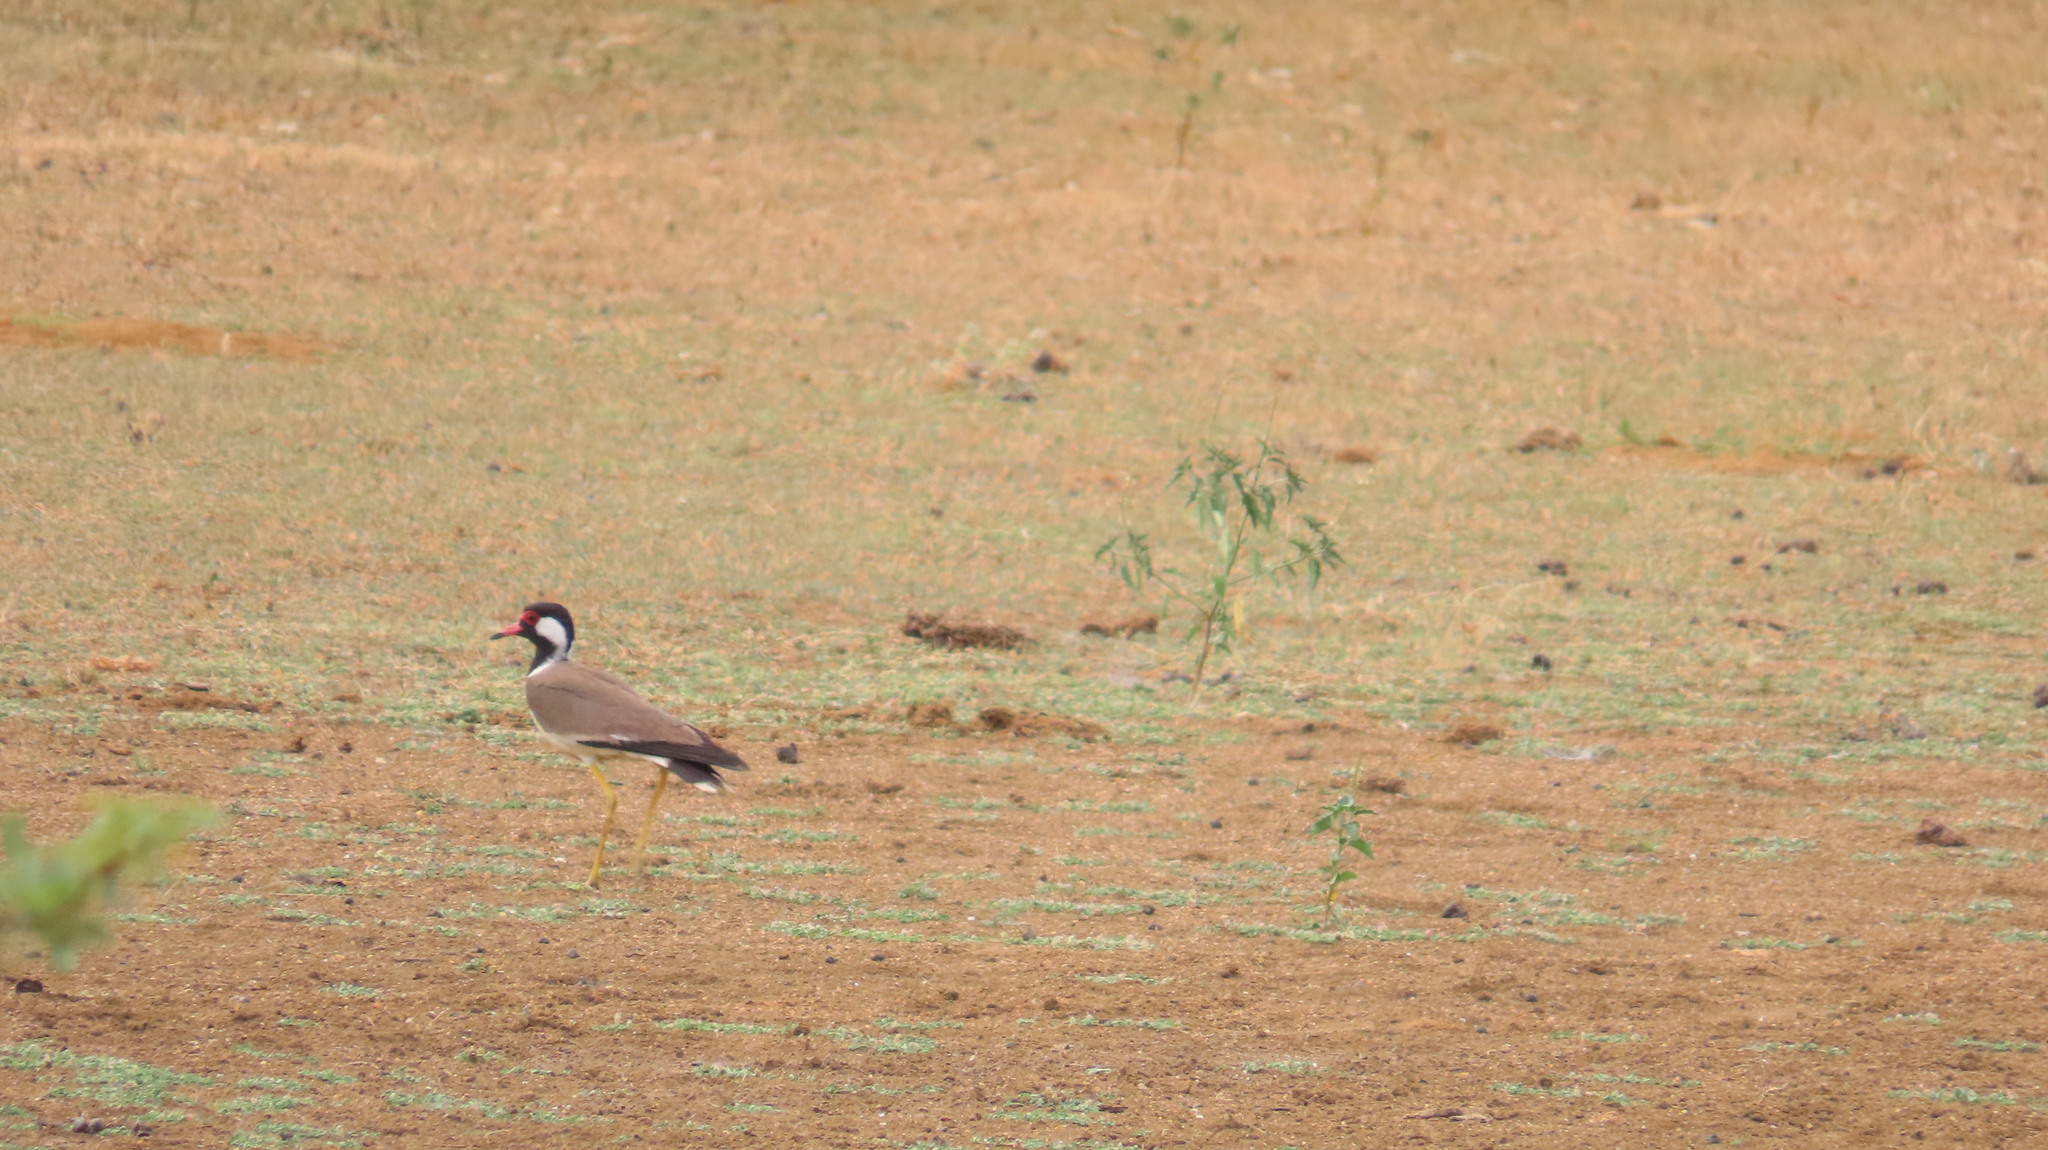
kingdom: Animalia
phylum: Chordata
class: Aves
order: Charadriiformes
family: Charadriidae
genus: Vanellus
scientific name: Vanellus indicus
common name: Red-wattled lapwing
